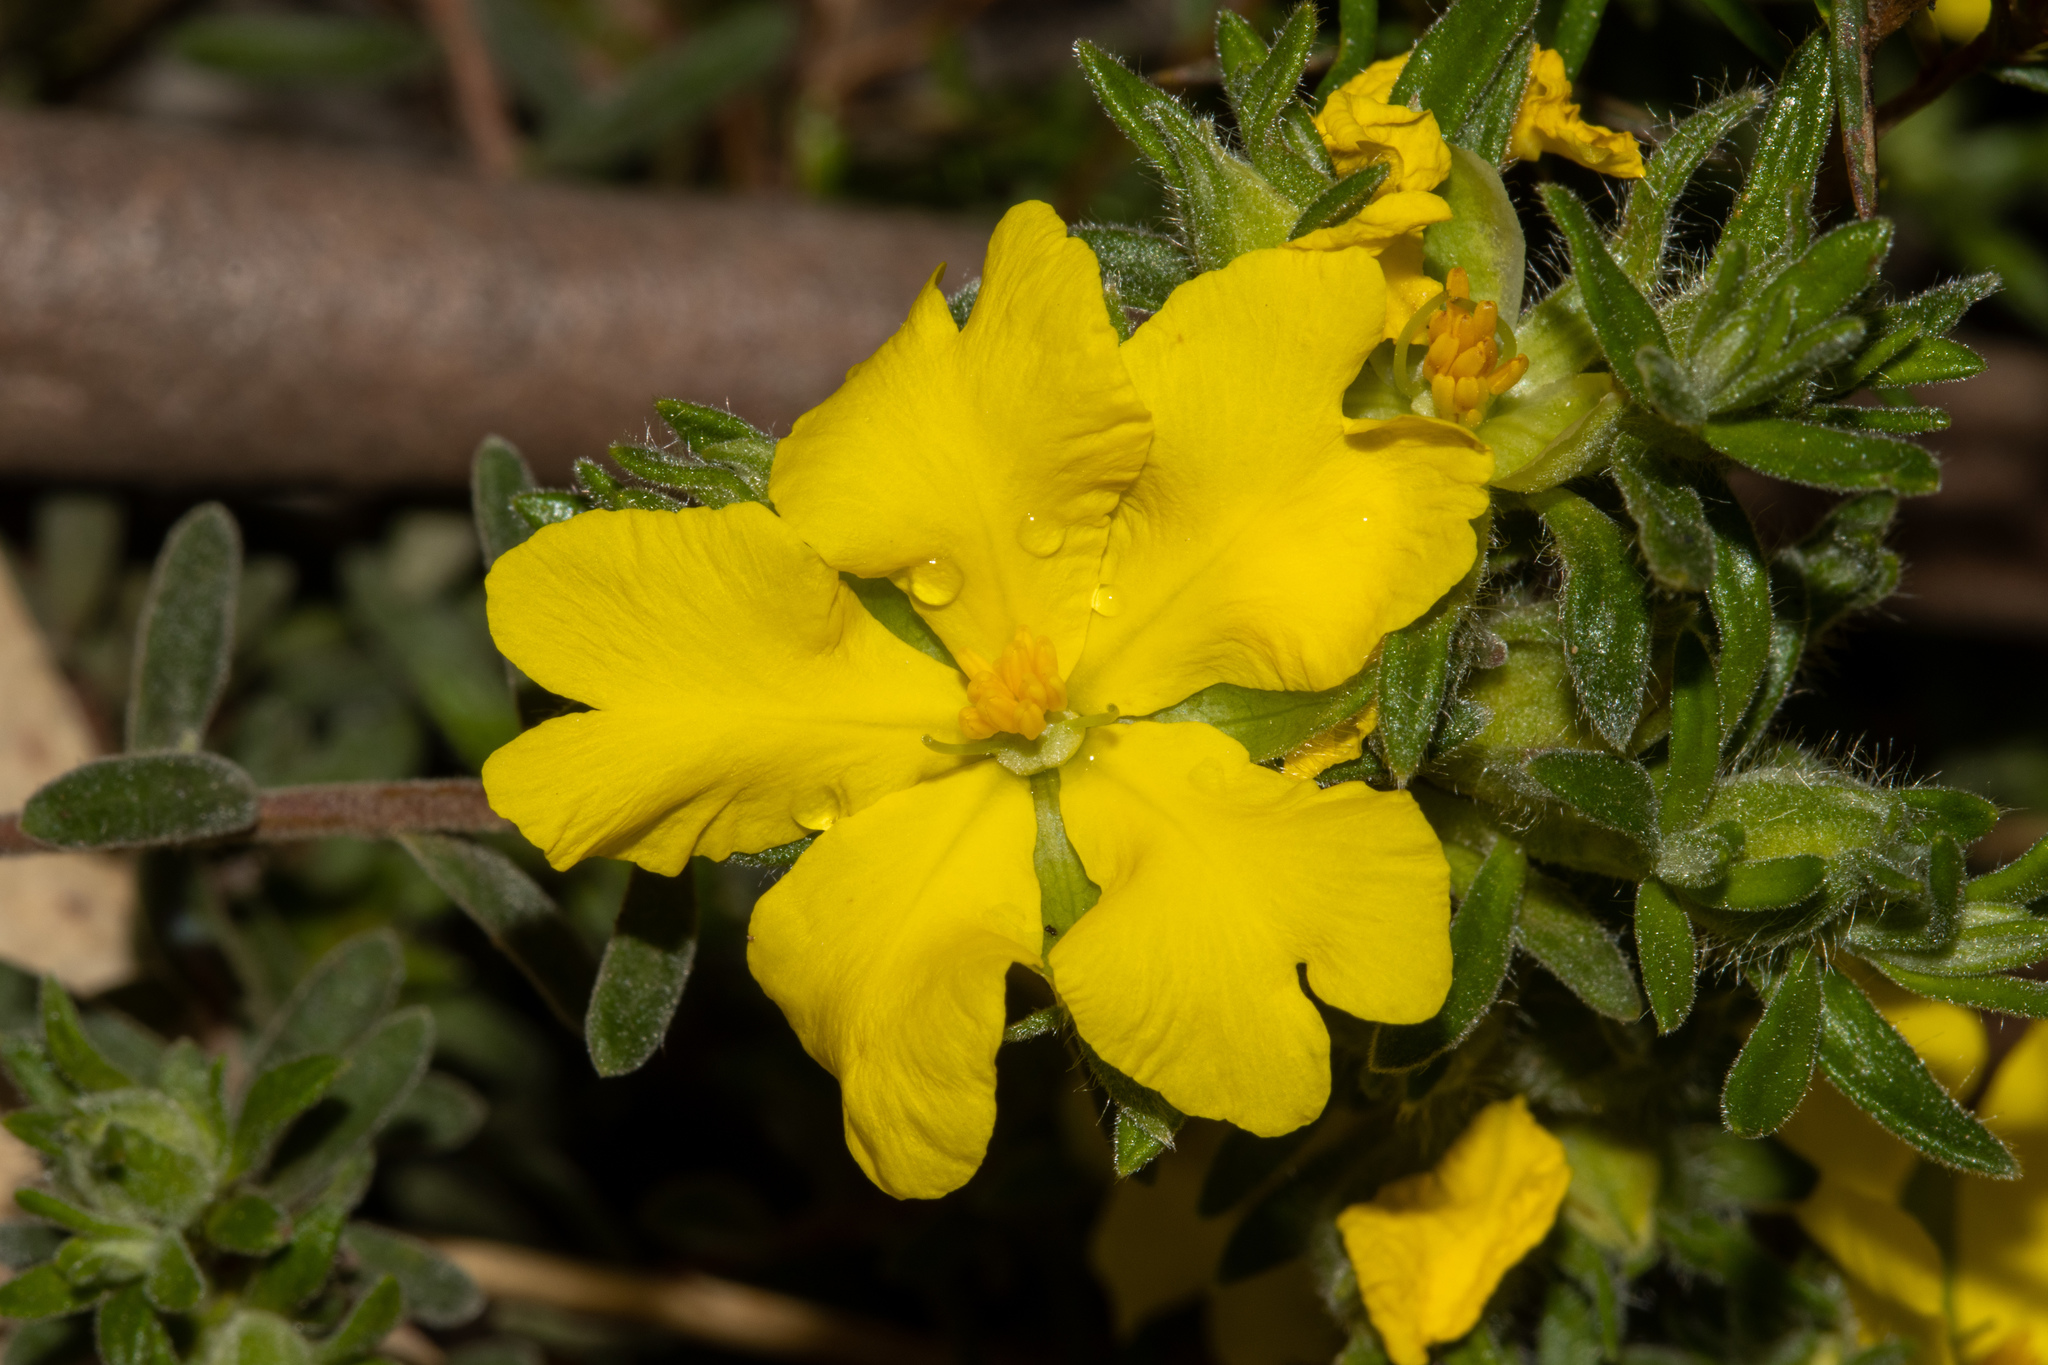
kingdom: Plantae
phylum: Tracheophyta
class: Magnoliopsida
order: Dilleniales
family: Dilleniaceae
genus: Hibbertia
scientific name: Hibbertia crinita
